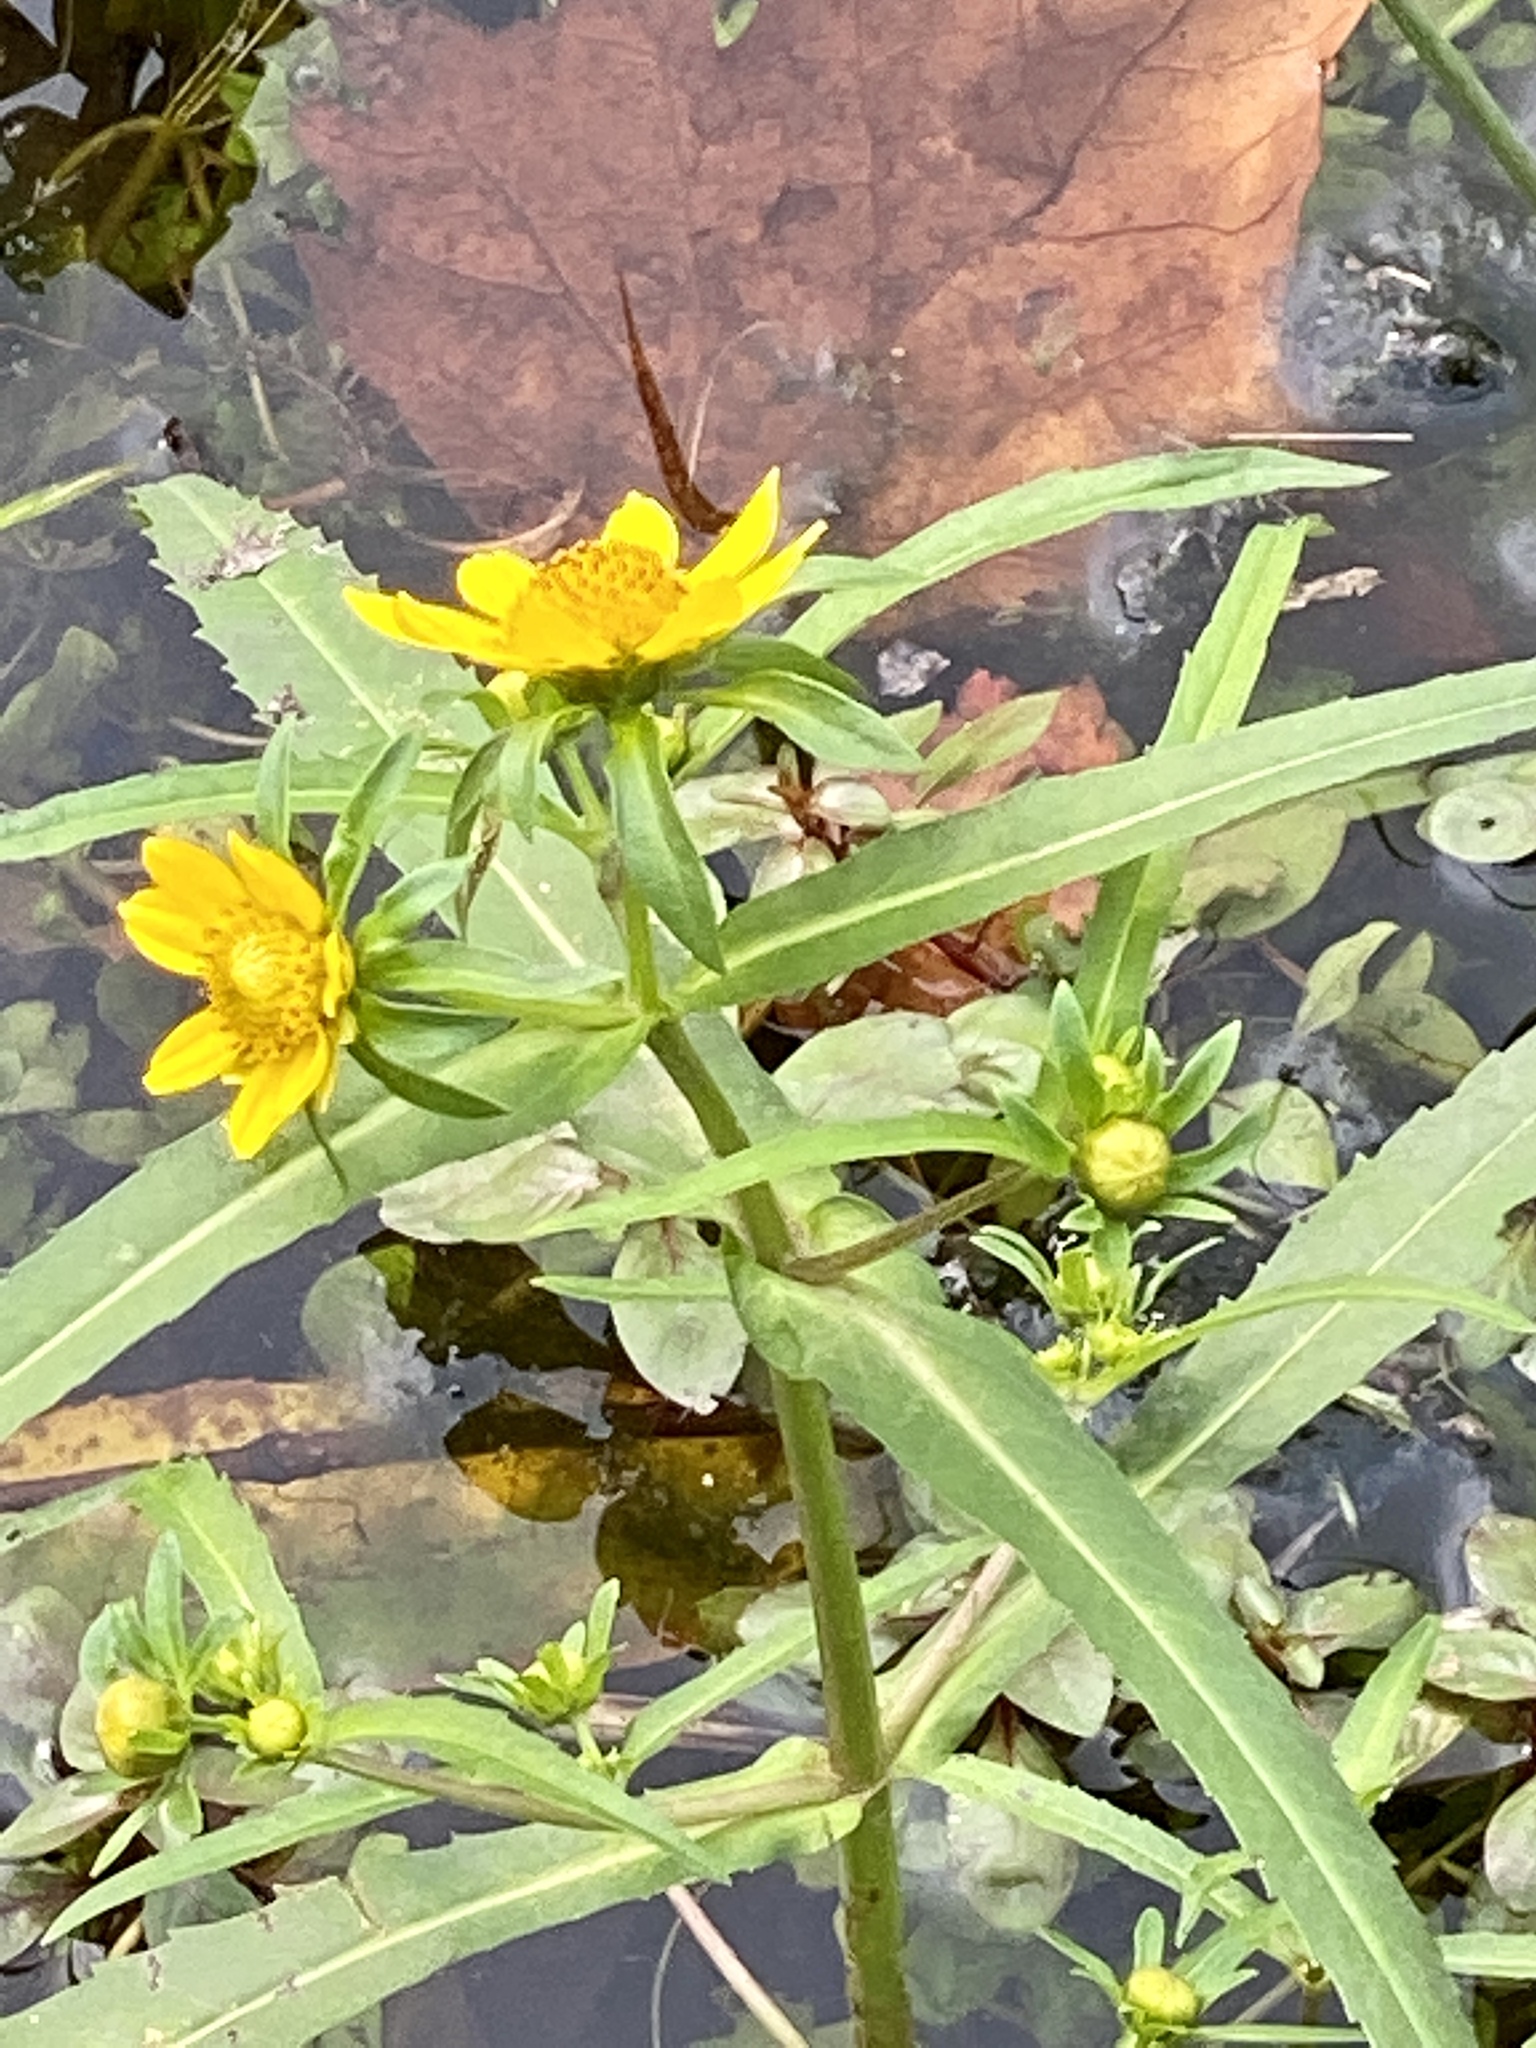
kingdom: Plantae
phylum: Tracheophyta
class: Magnoliopsida
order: Asterales
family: Asteraceae
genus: Bidens
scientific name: Bidens cernua
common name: Nodding bur-marigold
